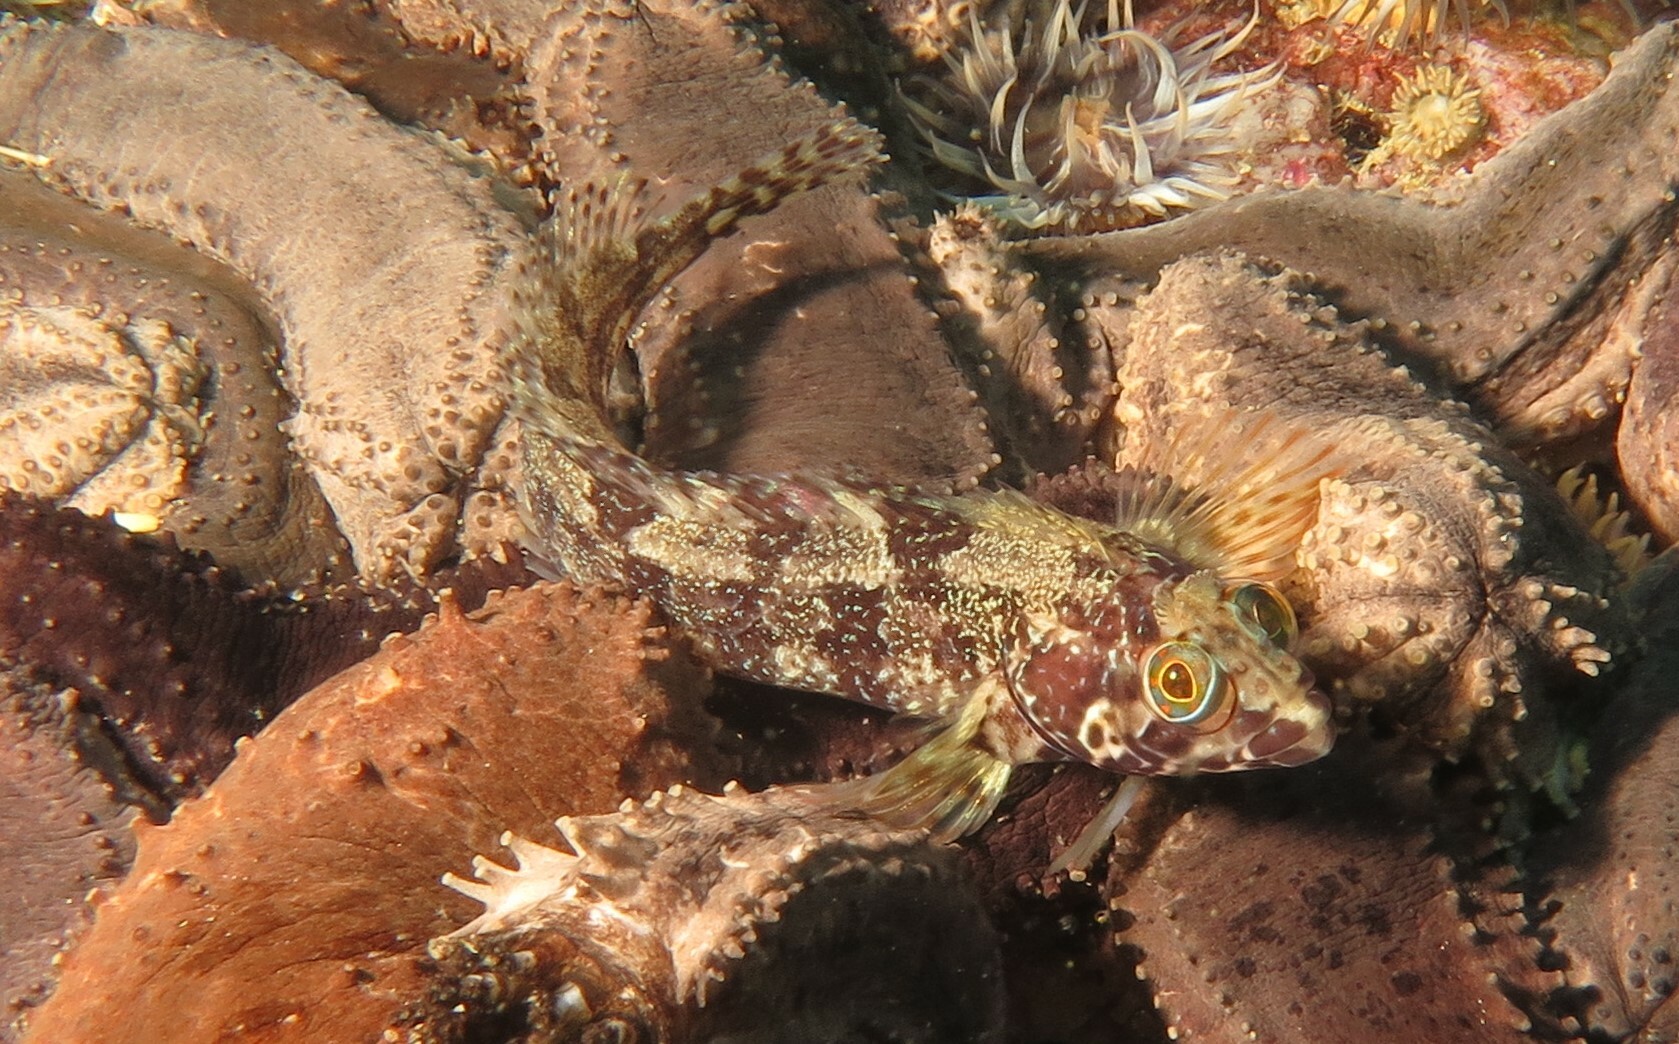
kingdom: Animalia
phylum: Chordata
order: Perciformes
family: Clinidae
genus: Clinus
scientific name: Clinus venustris
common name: Speckled klipfish
